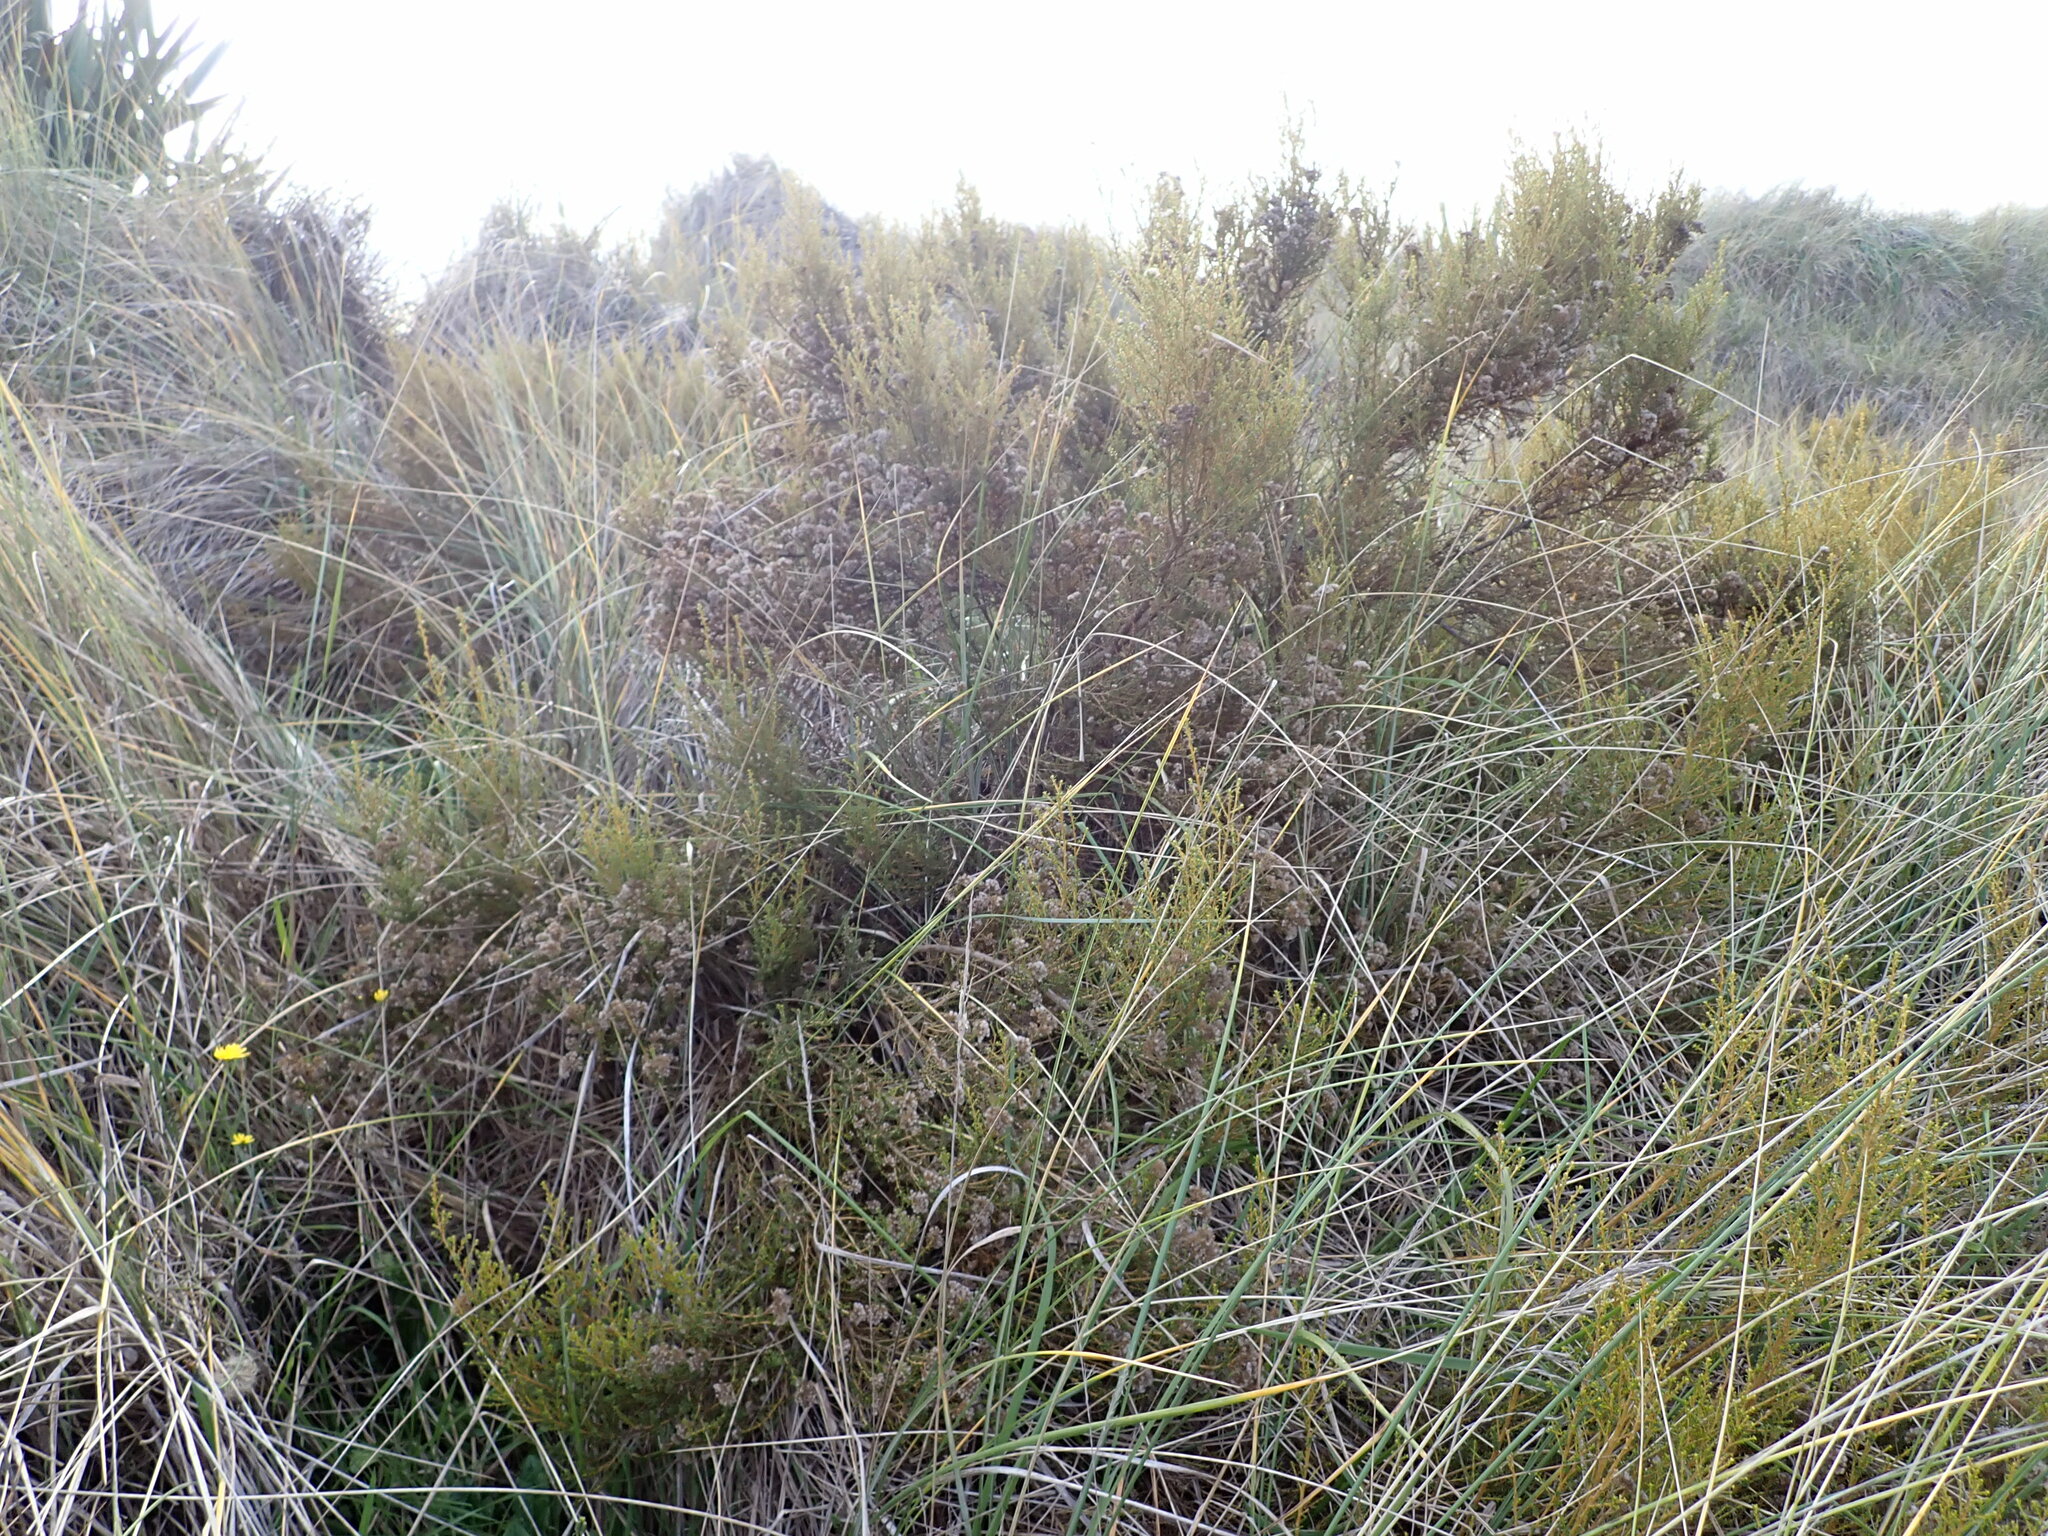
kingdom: Plantae
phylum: Tracheophyta
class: Magnoliopsida
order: Asterales
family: Asteraceae
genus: Ozothamnus
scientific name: Ozothamnus leptophyllus
